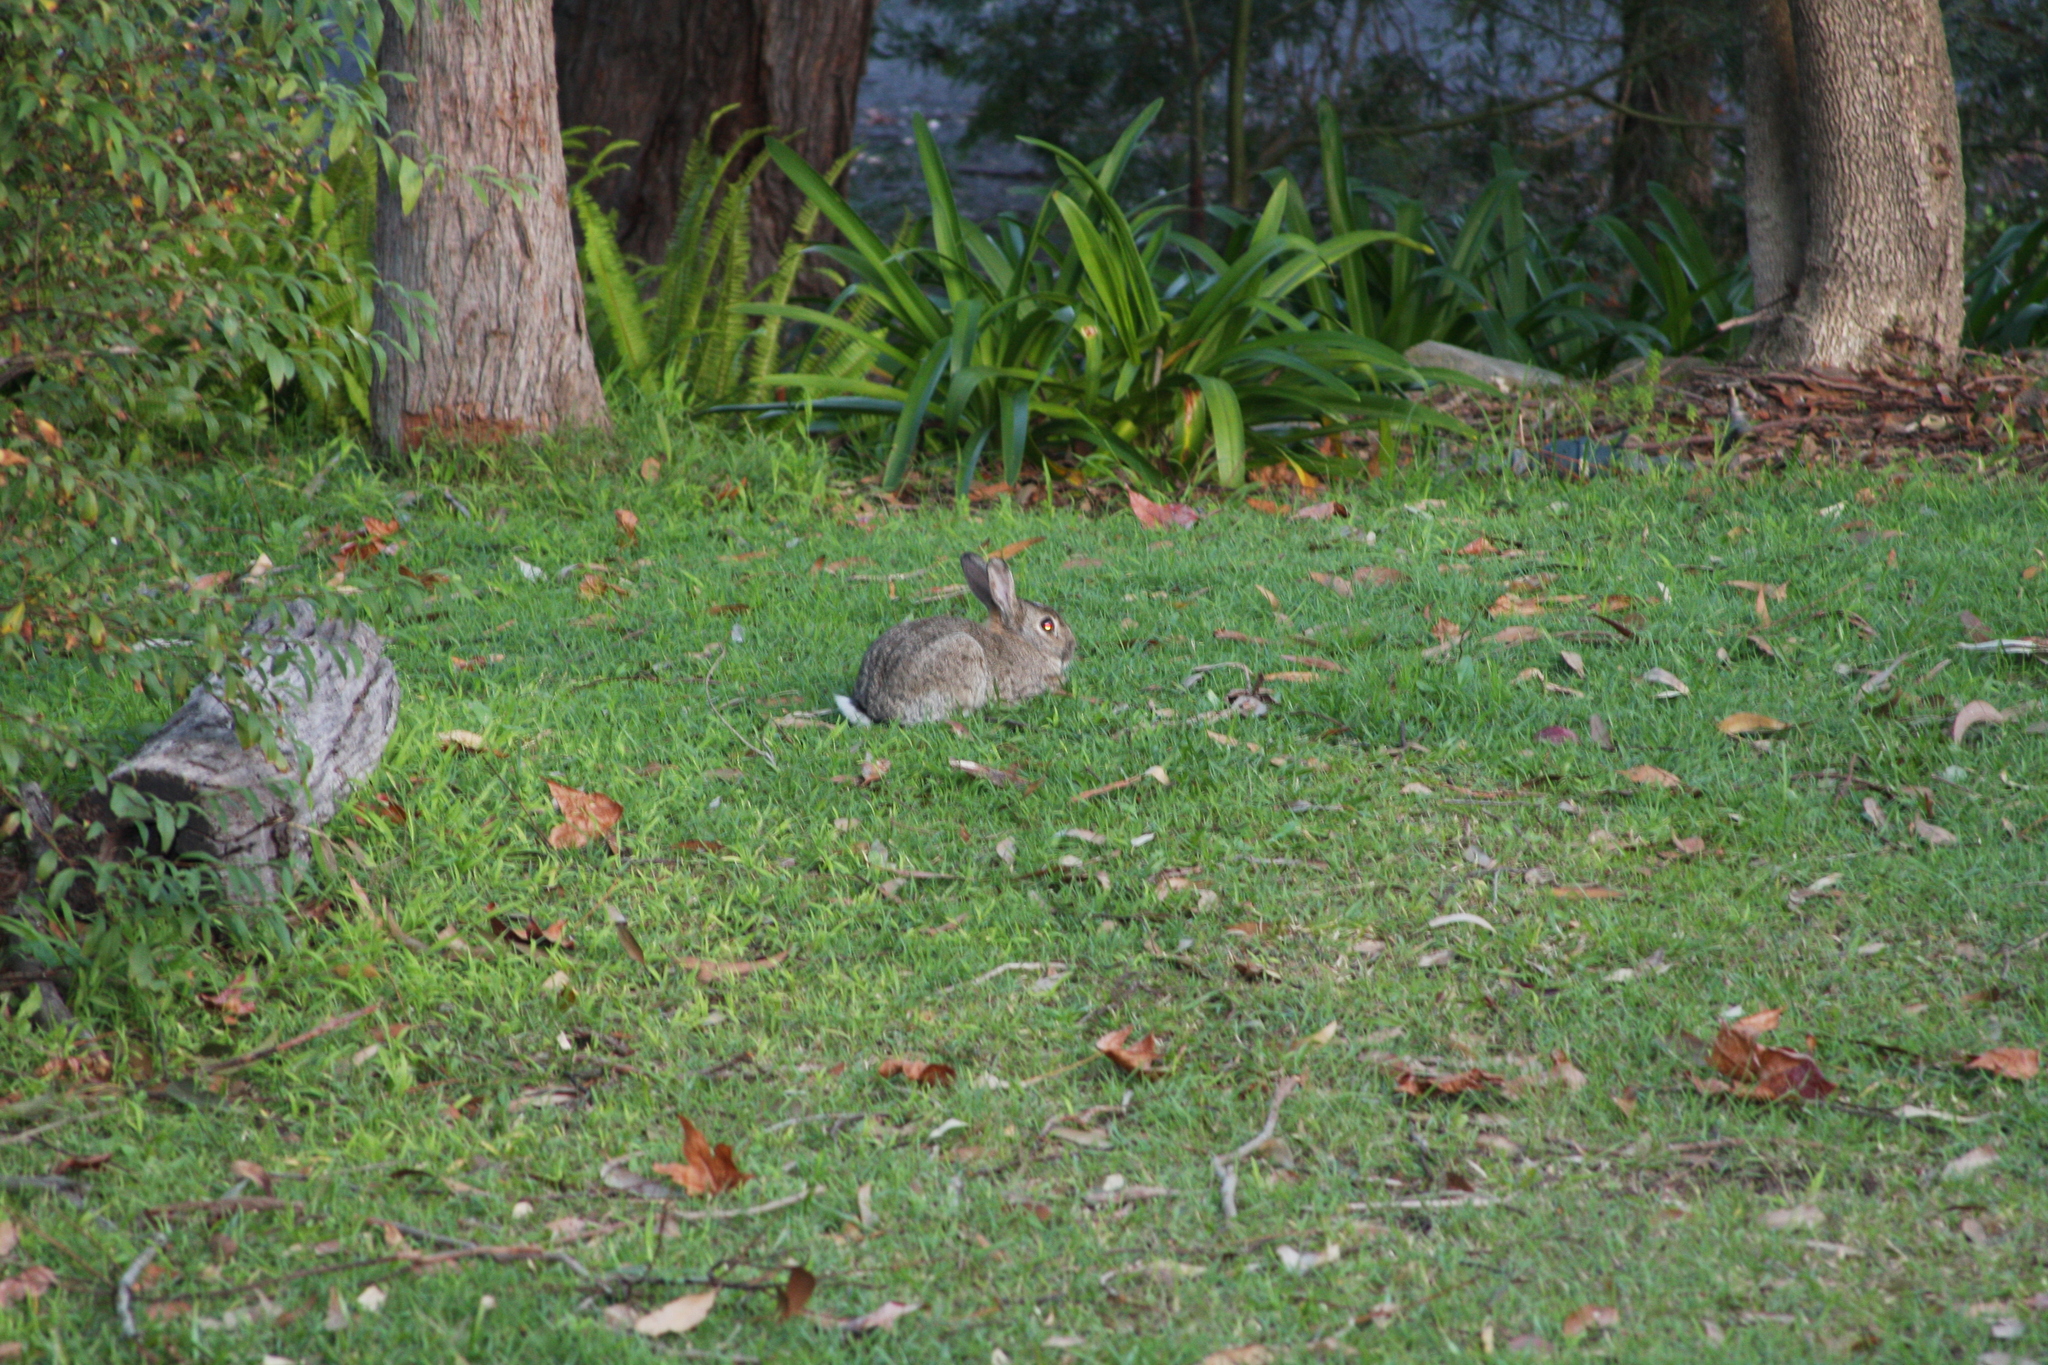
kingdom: Animalia
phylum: Chordata
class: Mammalia
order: Lagomorpha
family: Leporidae
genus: Oryctolagus
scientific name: Oryctolagus cuniculus
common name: European rabbit
